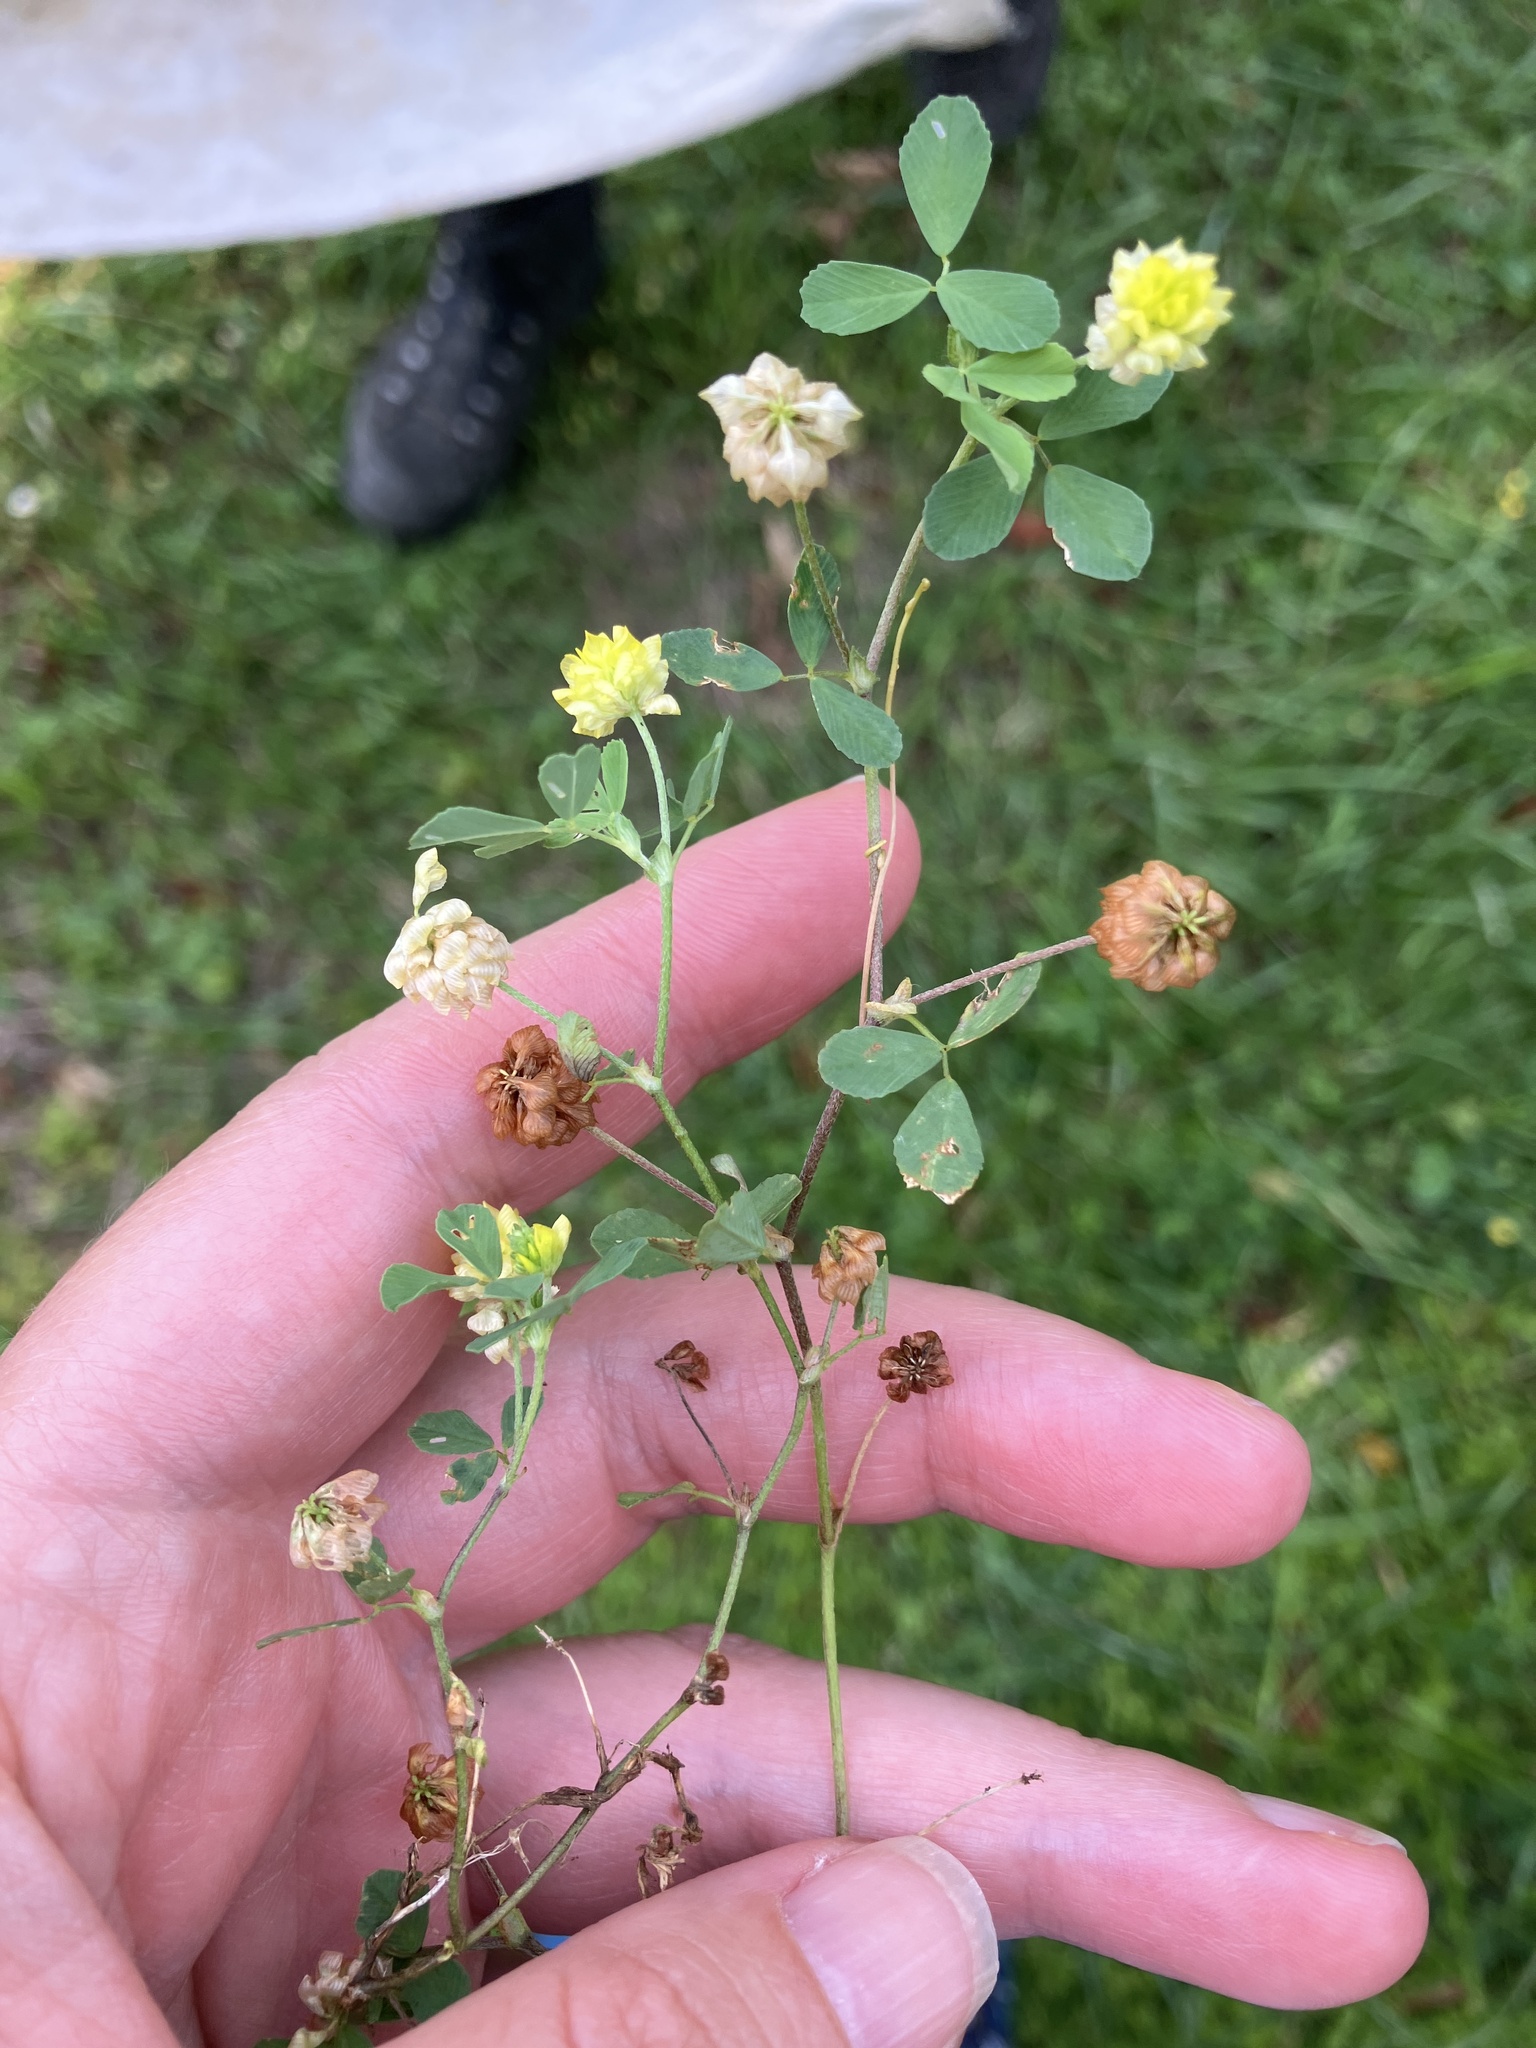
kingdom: Plantae
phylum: Tracheophyta
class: Magnoliopsida
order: Fabales
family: Fabaceae
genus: Trifolium
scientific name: Trifolium campestre
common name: Field clover
